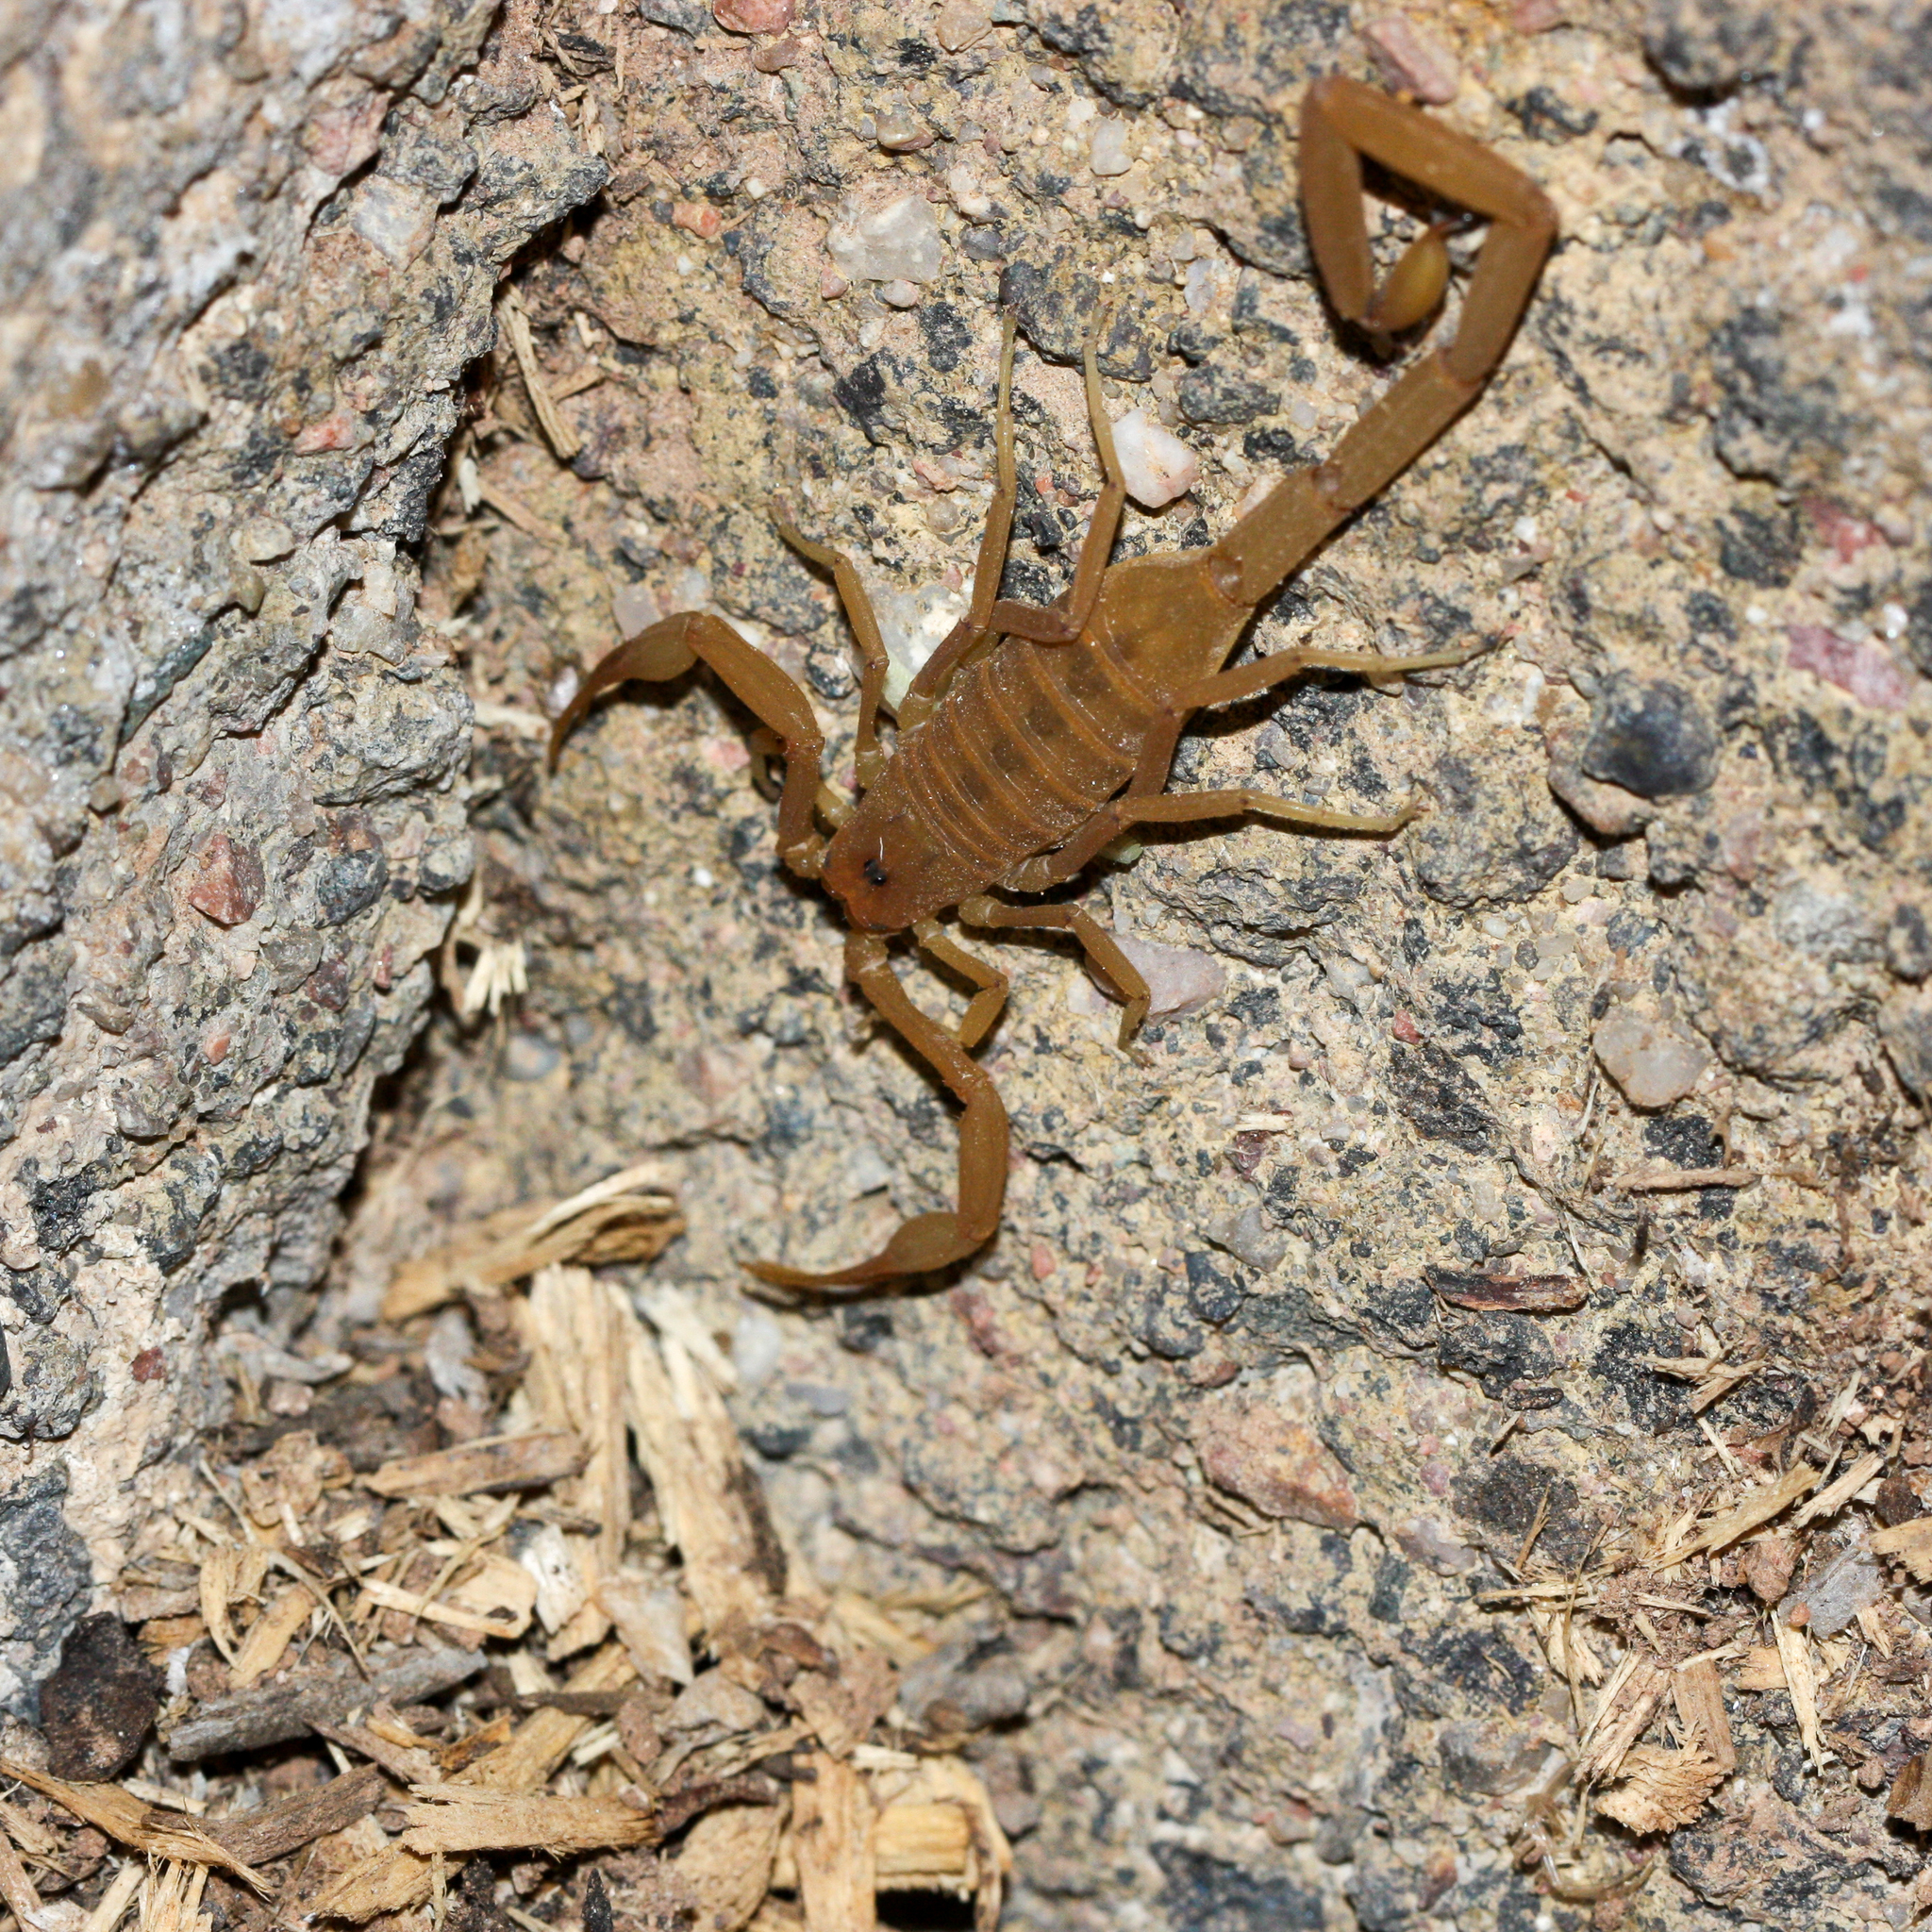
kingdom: Animalia
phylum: Arthropoda
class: Arachnida
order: Scorpiones
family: Buthidae
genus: Centruroides
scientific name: Centruroides sculpturatus
